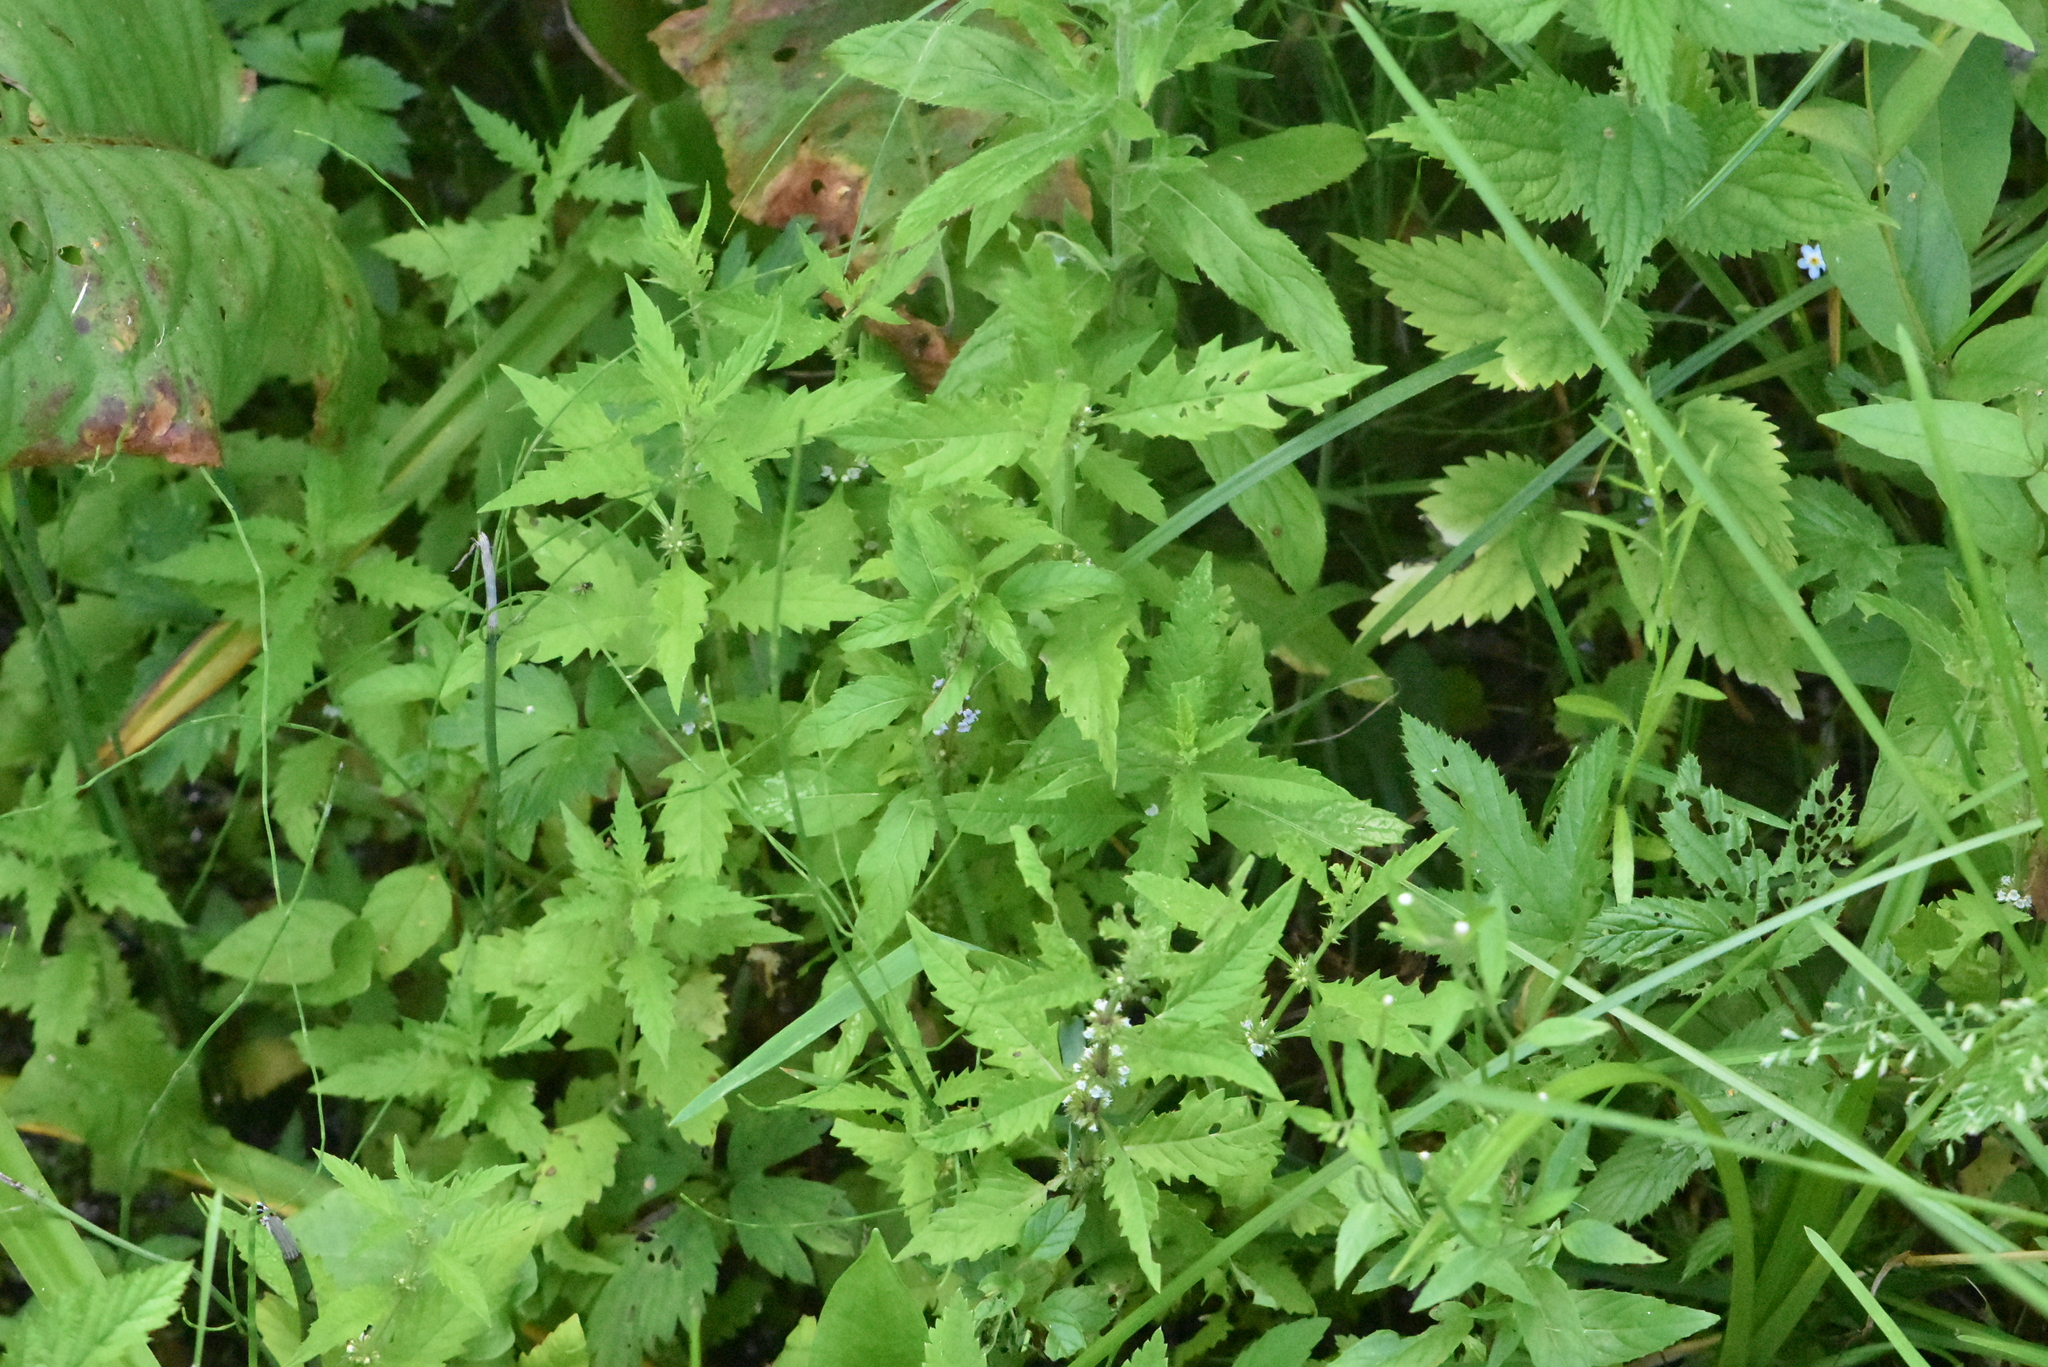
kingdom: Plantae
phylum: Tracheophyta
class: Magnoliopsida
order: Lamiales
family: Lamiaceae
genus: Lycopus
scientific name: Lycopus europaeus
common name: European bugleweed
